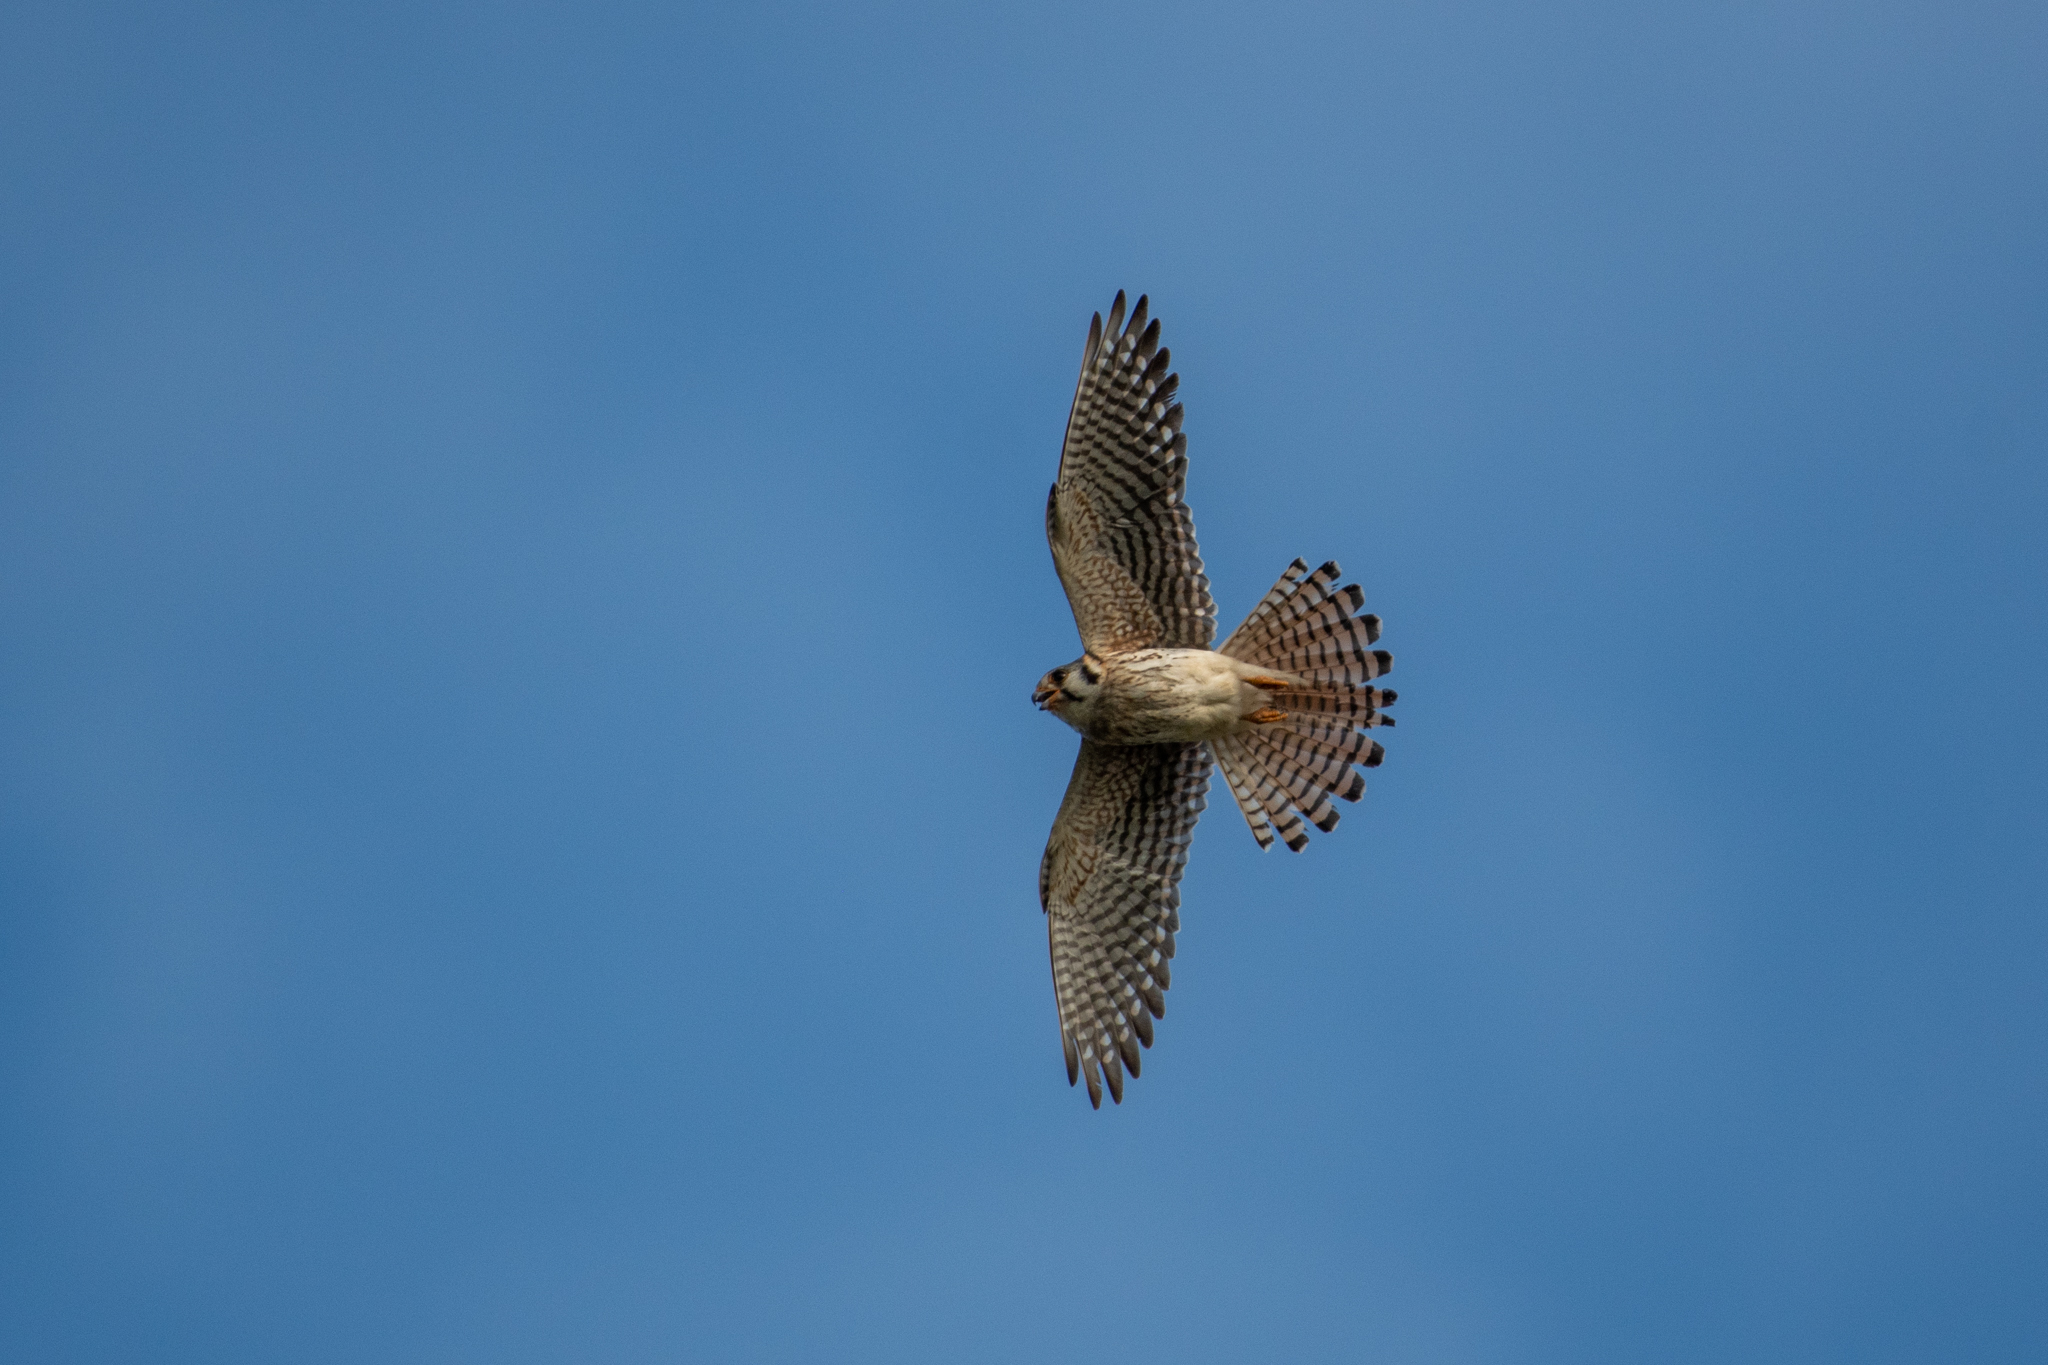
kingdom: Animalia
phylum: Chordata
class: Aves
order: Falconiformes
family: Falconidae
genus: Falco
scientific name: Falco sparverius
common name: American kestrel
